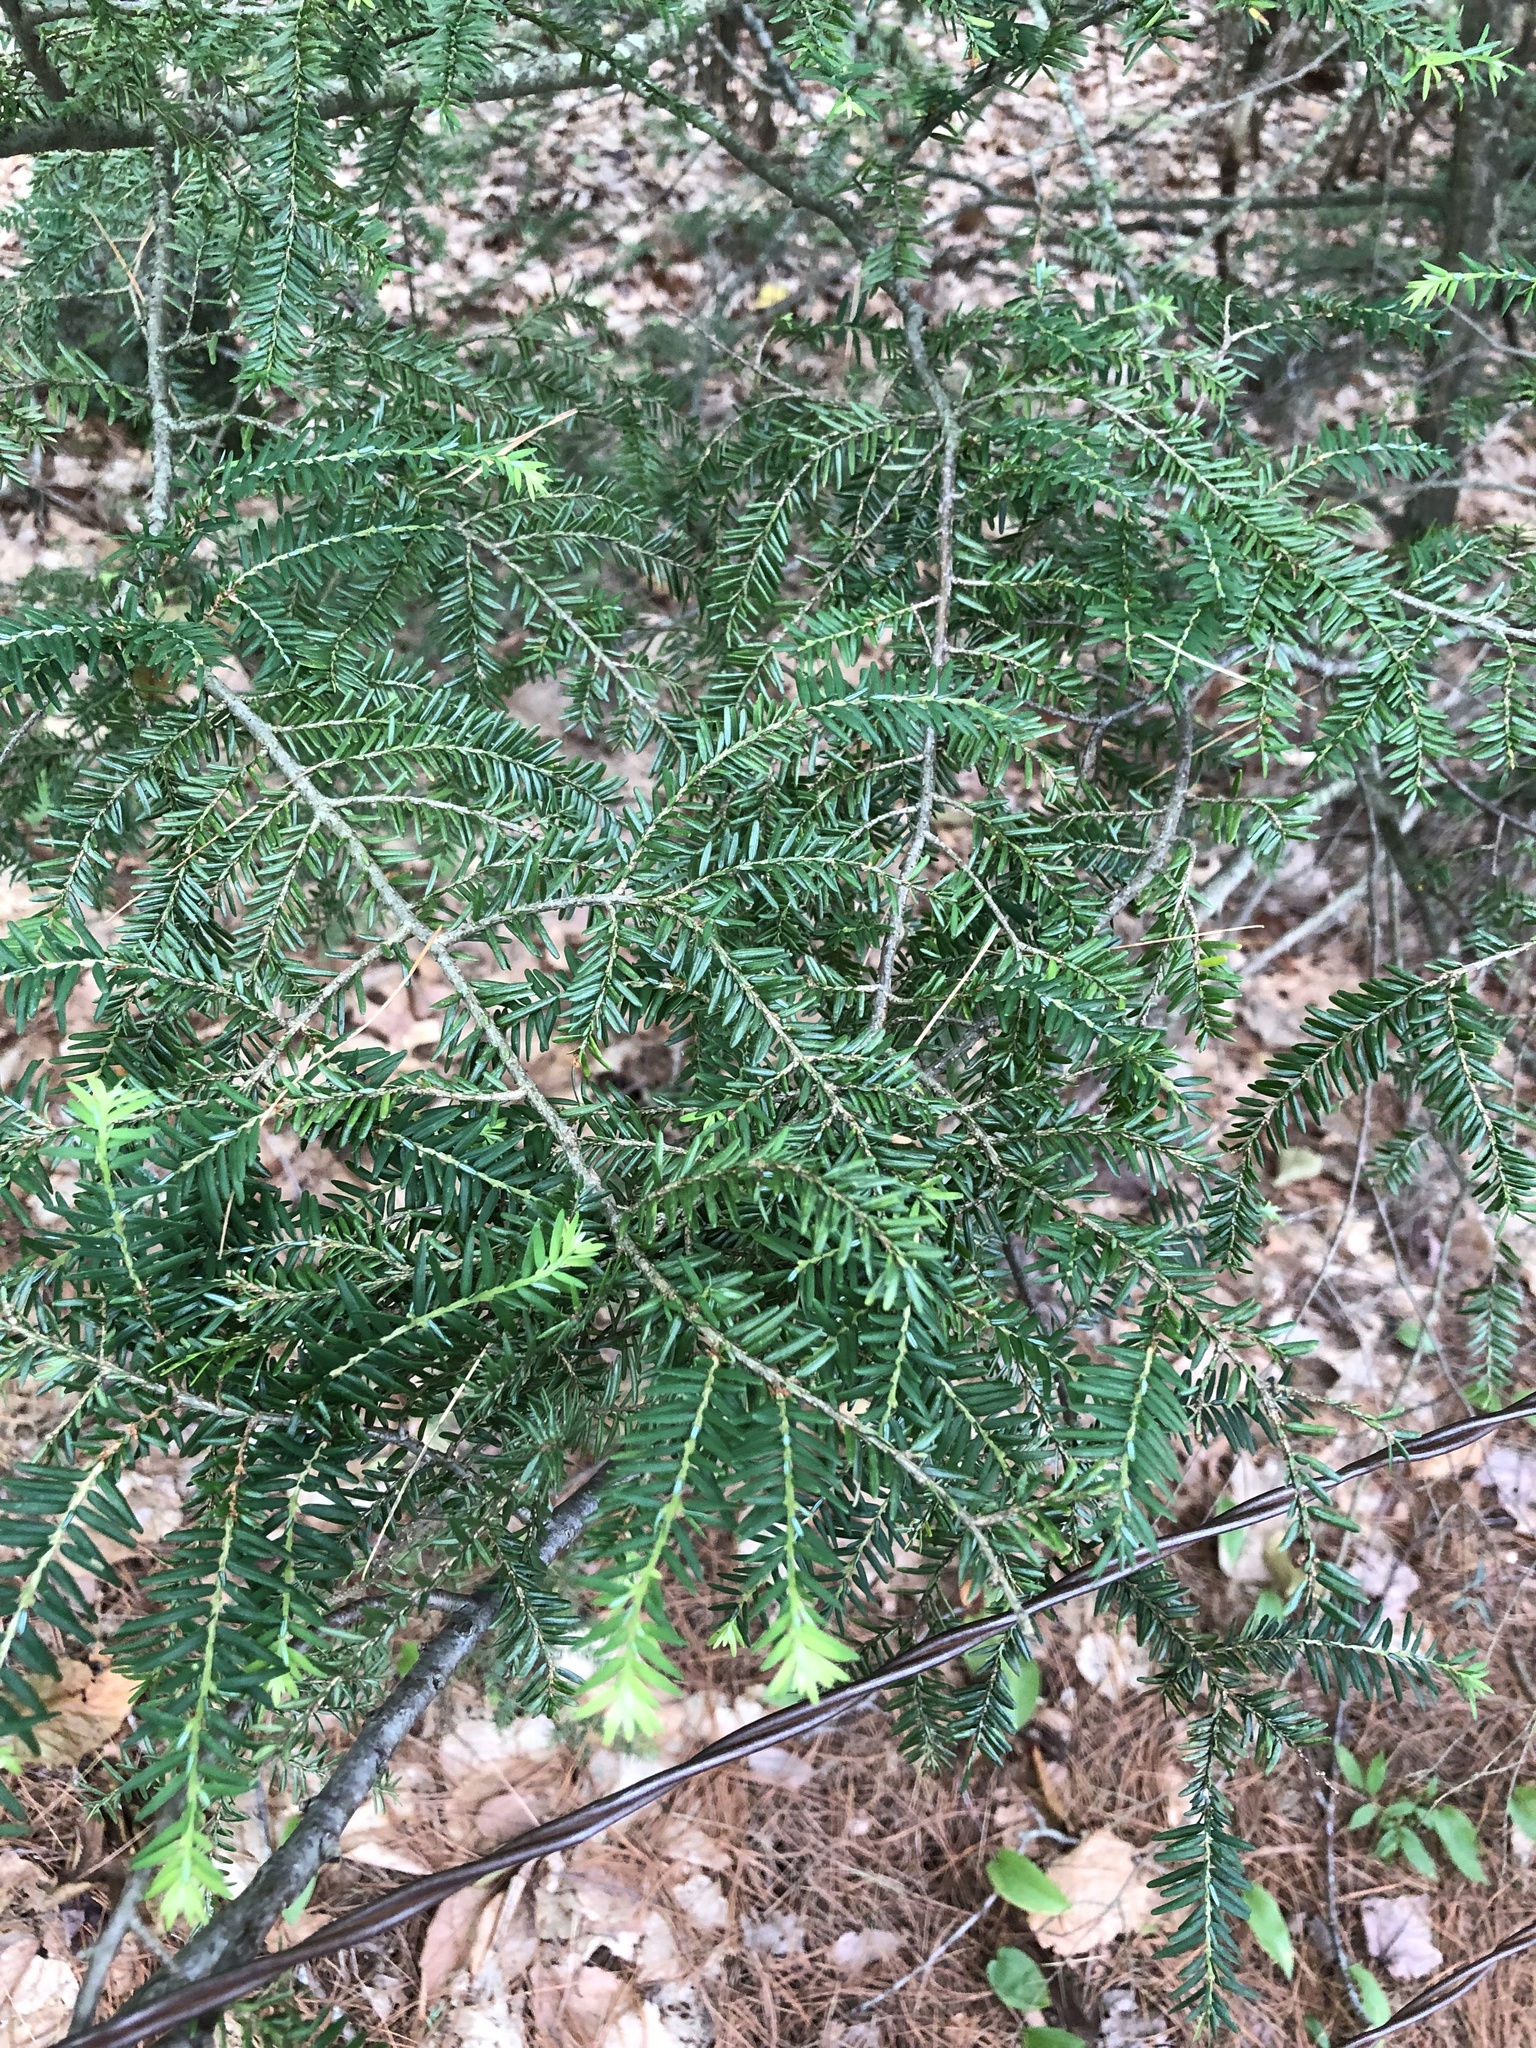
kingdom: Plantae
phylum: Tracheophyta
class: Pinopsida
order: Pinales
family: Pinaceae
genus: Tsuga
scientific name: Tsuga canadensis
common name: Eastern hemlock
